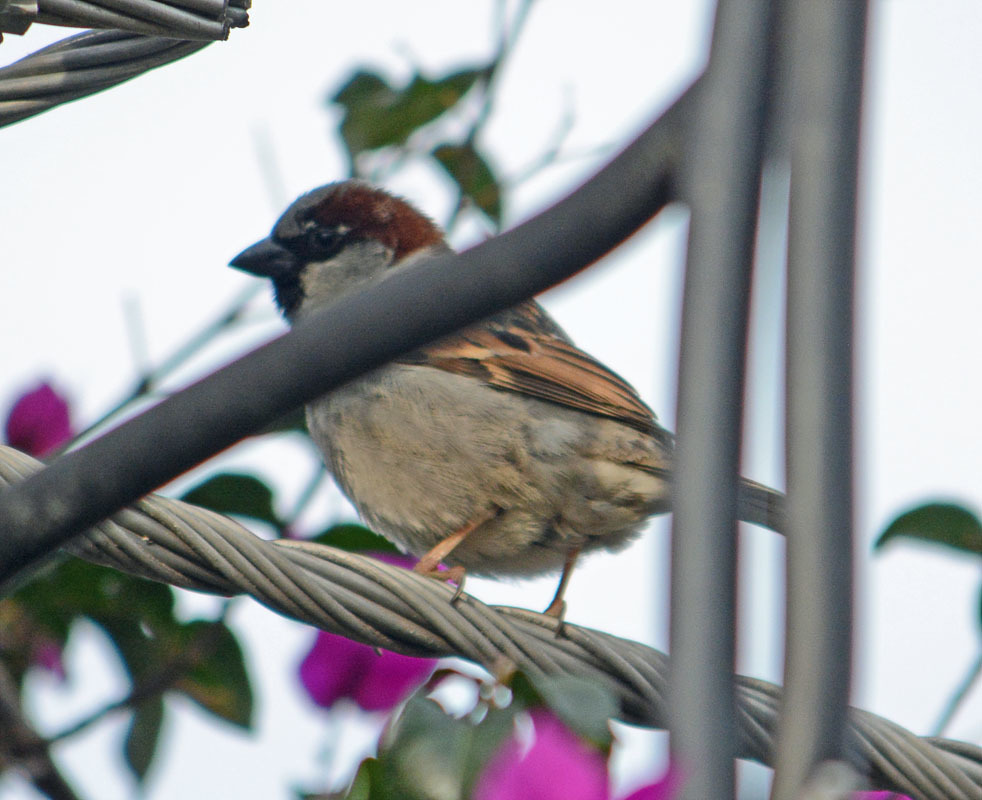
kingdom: Animalia
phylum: Chordata
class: Aves
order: Passeriformes
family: Passeridae
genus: Passer
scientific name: Passer domesticus
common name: House sparrow
